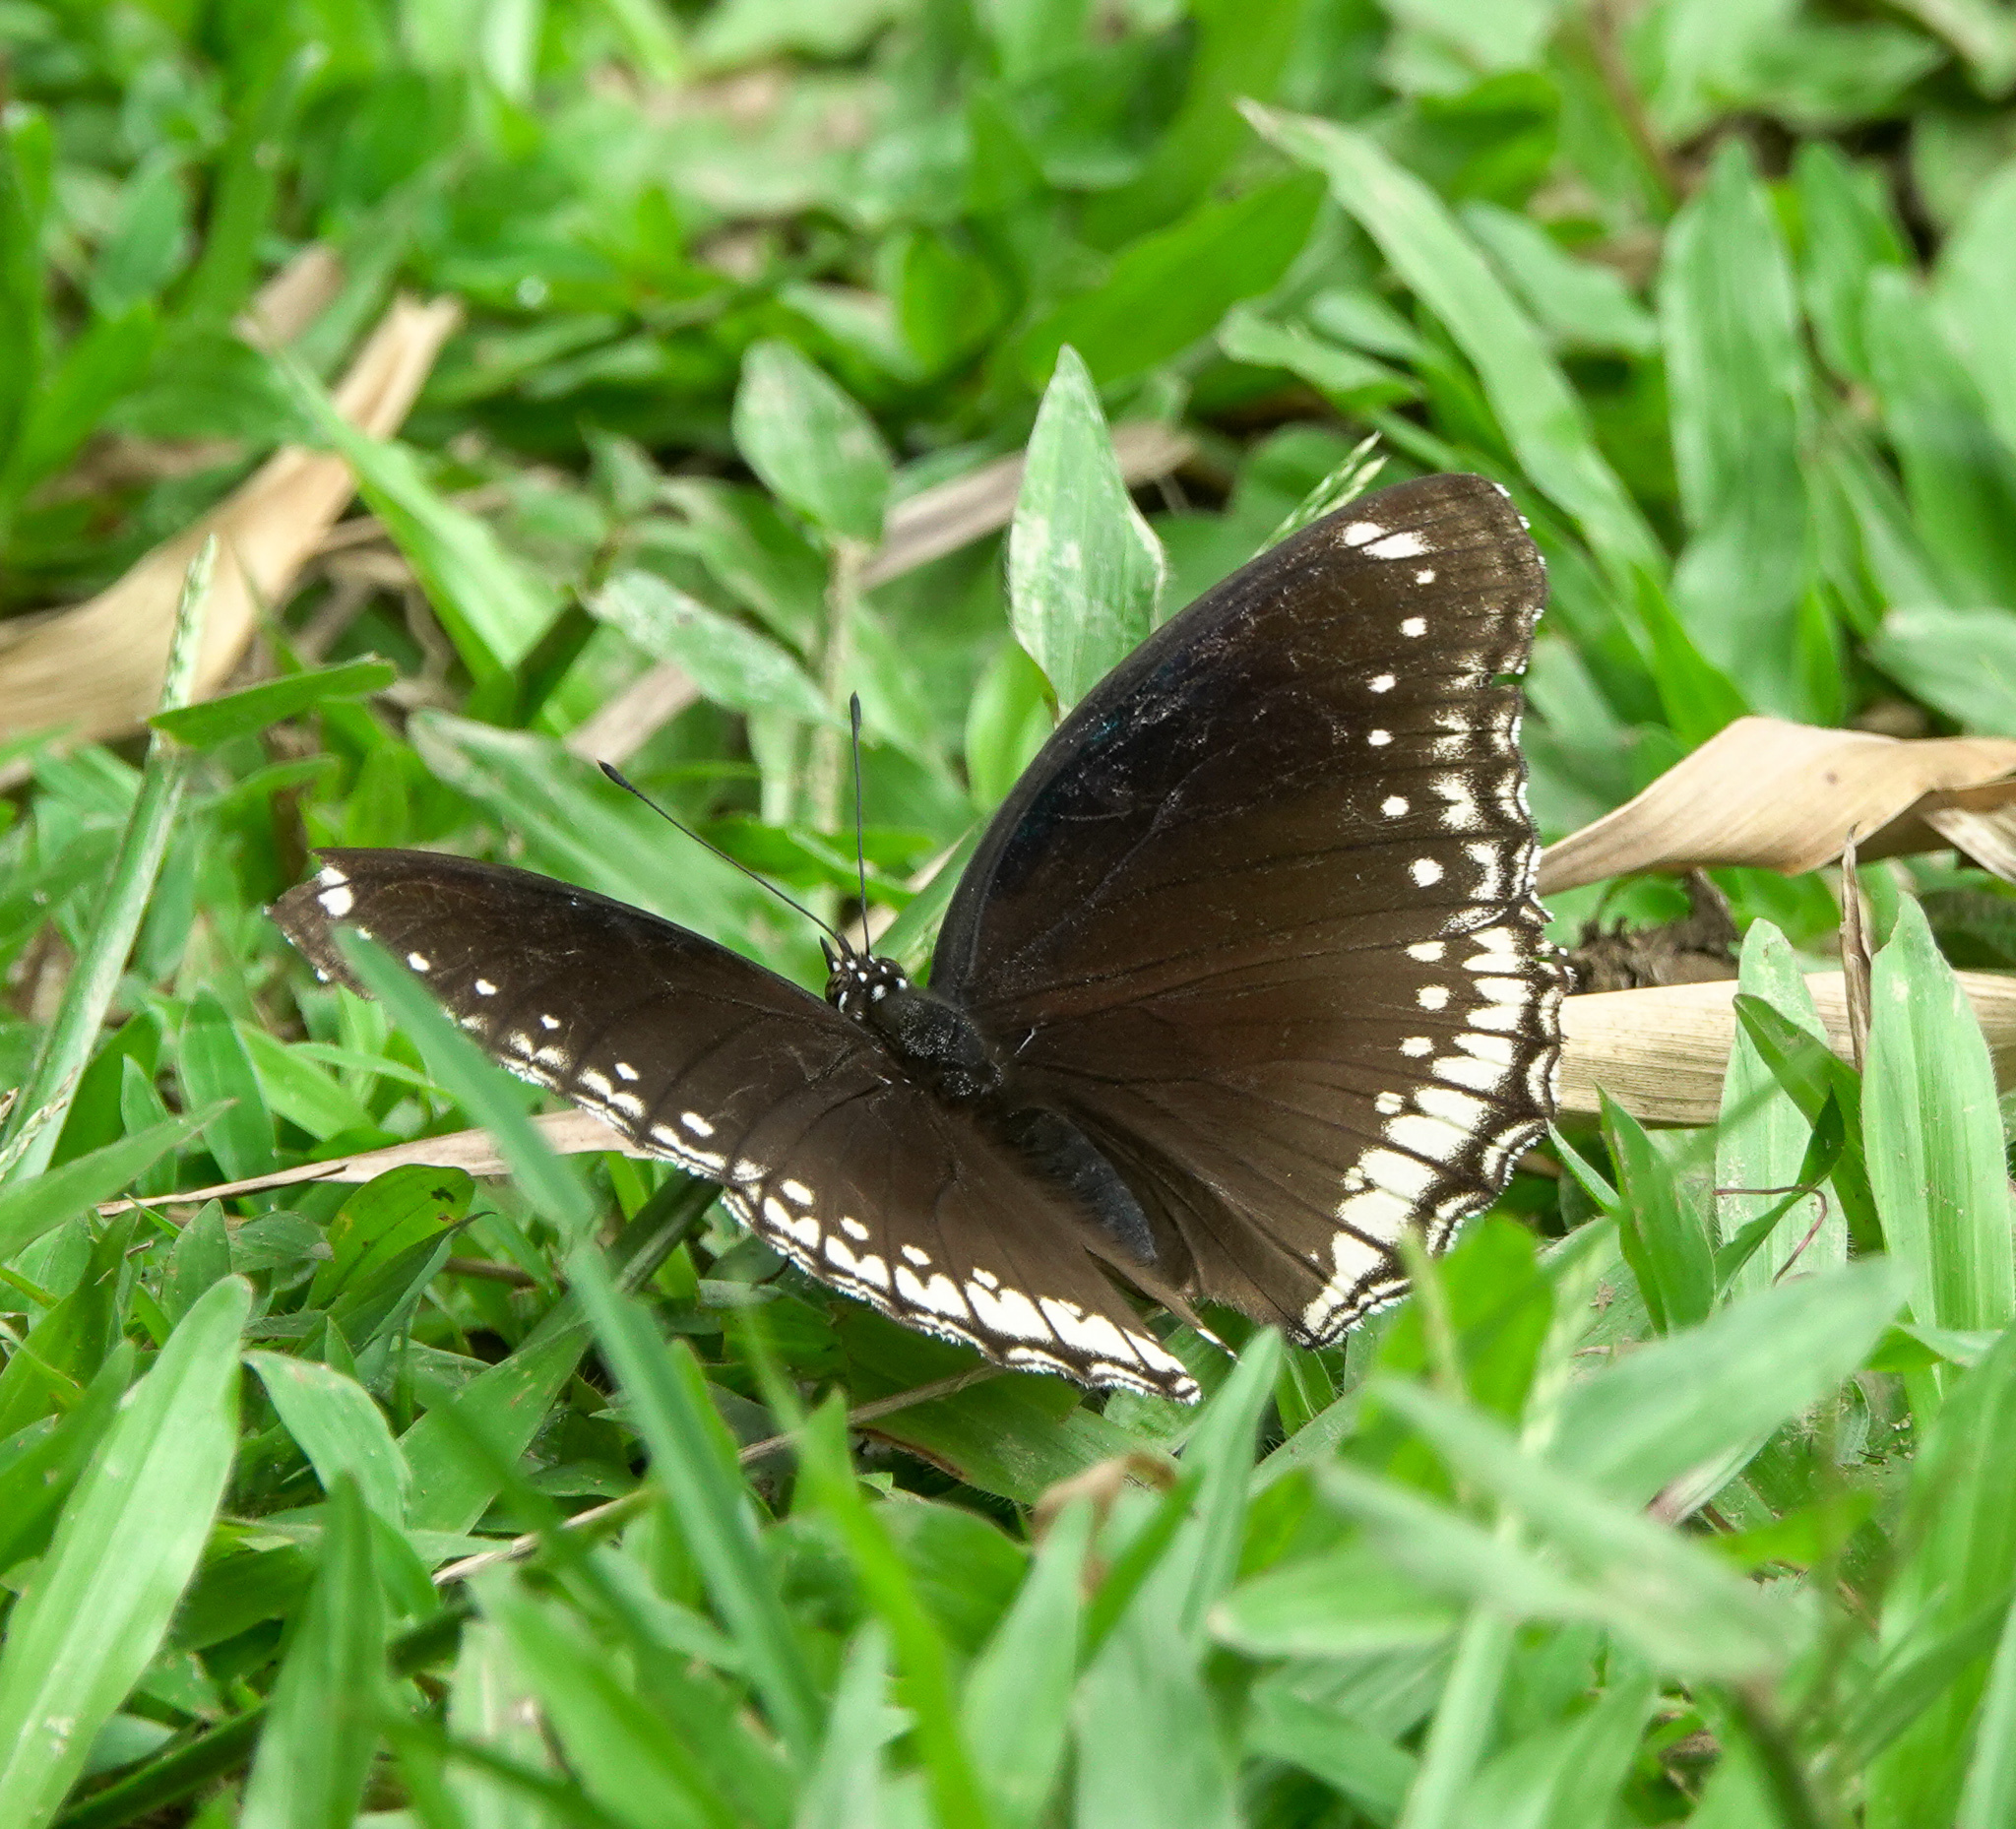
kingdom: Animalia
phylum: Arthropoda
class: Insecta
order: Lepidoptera
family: Nymphalidae
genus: Hypolimnas
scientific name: Hypolimnas bolina
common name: Great eggfly
